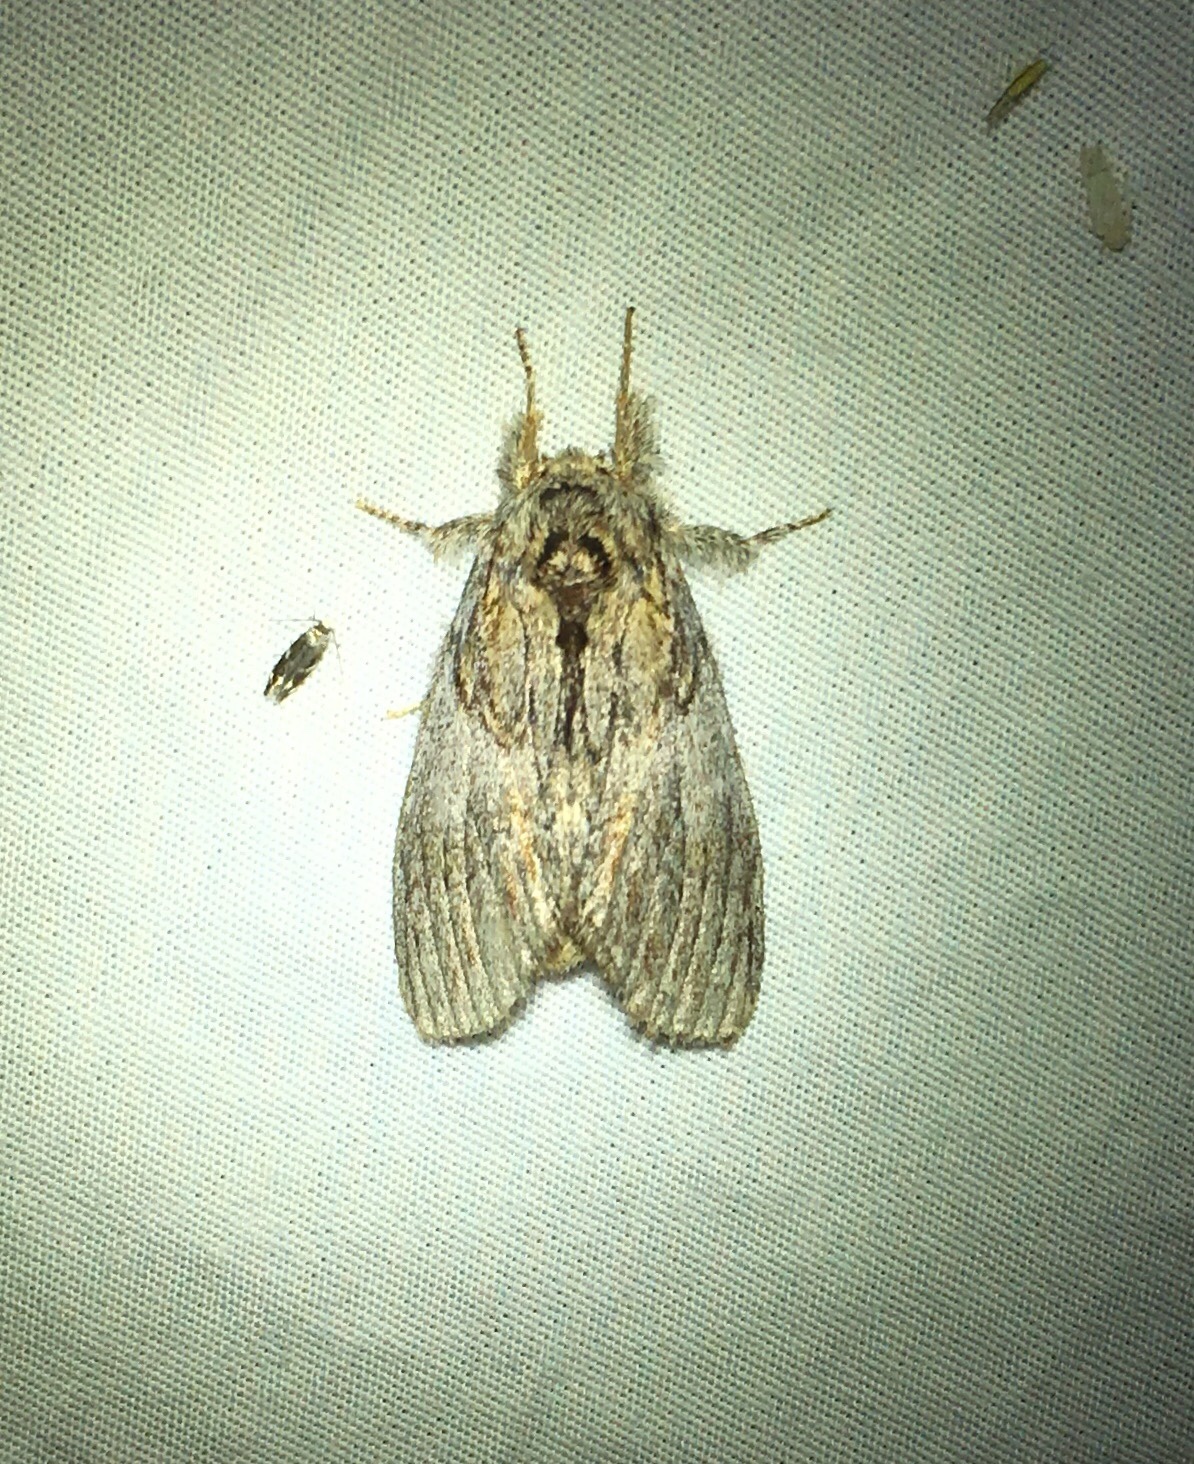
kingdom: Animalia
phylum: Arthropoda
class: Insecta
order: Lepidoptera
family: Notodontidae
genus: Peridea
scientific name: Peridea basitriens
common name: Oval-based prominent
